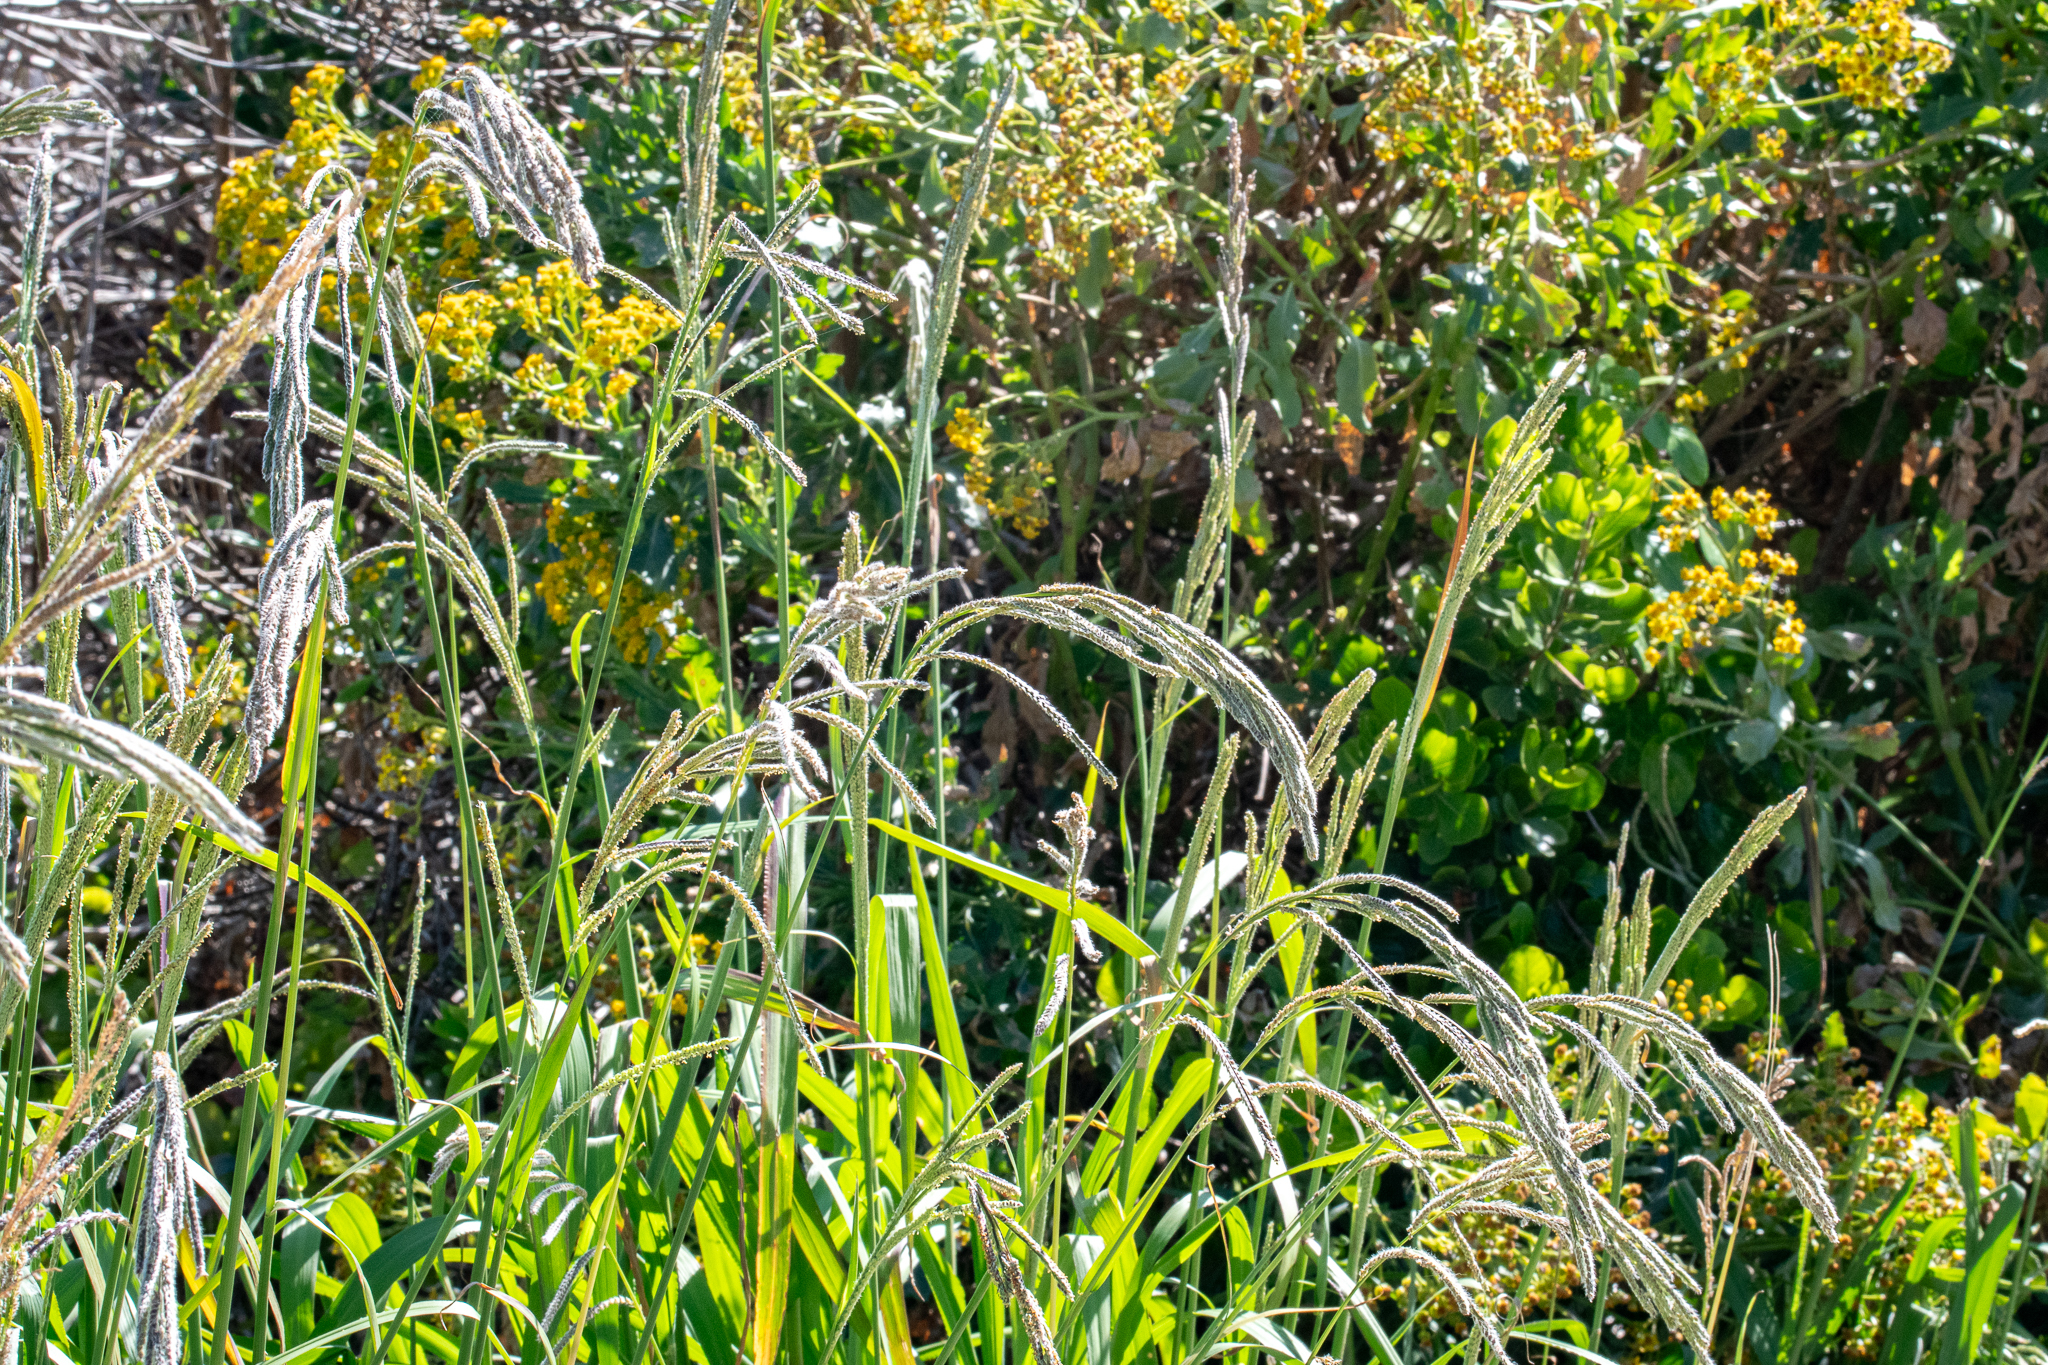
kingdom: Plantae
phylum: Tracheophyta
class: Liliopsida
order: Poales
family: Poaceae
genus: Paspalum
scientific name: Paspalum urvillei
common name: Vasey's grass
